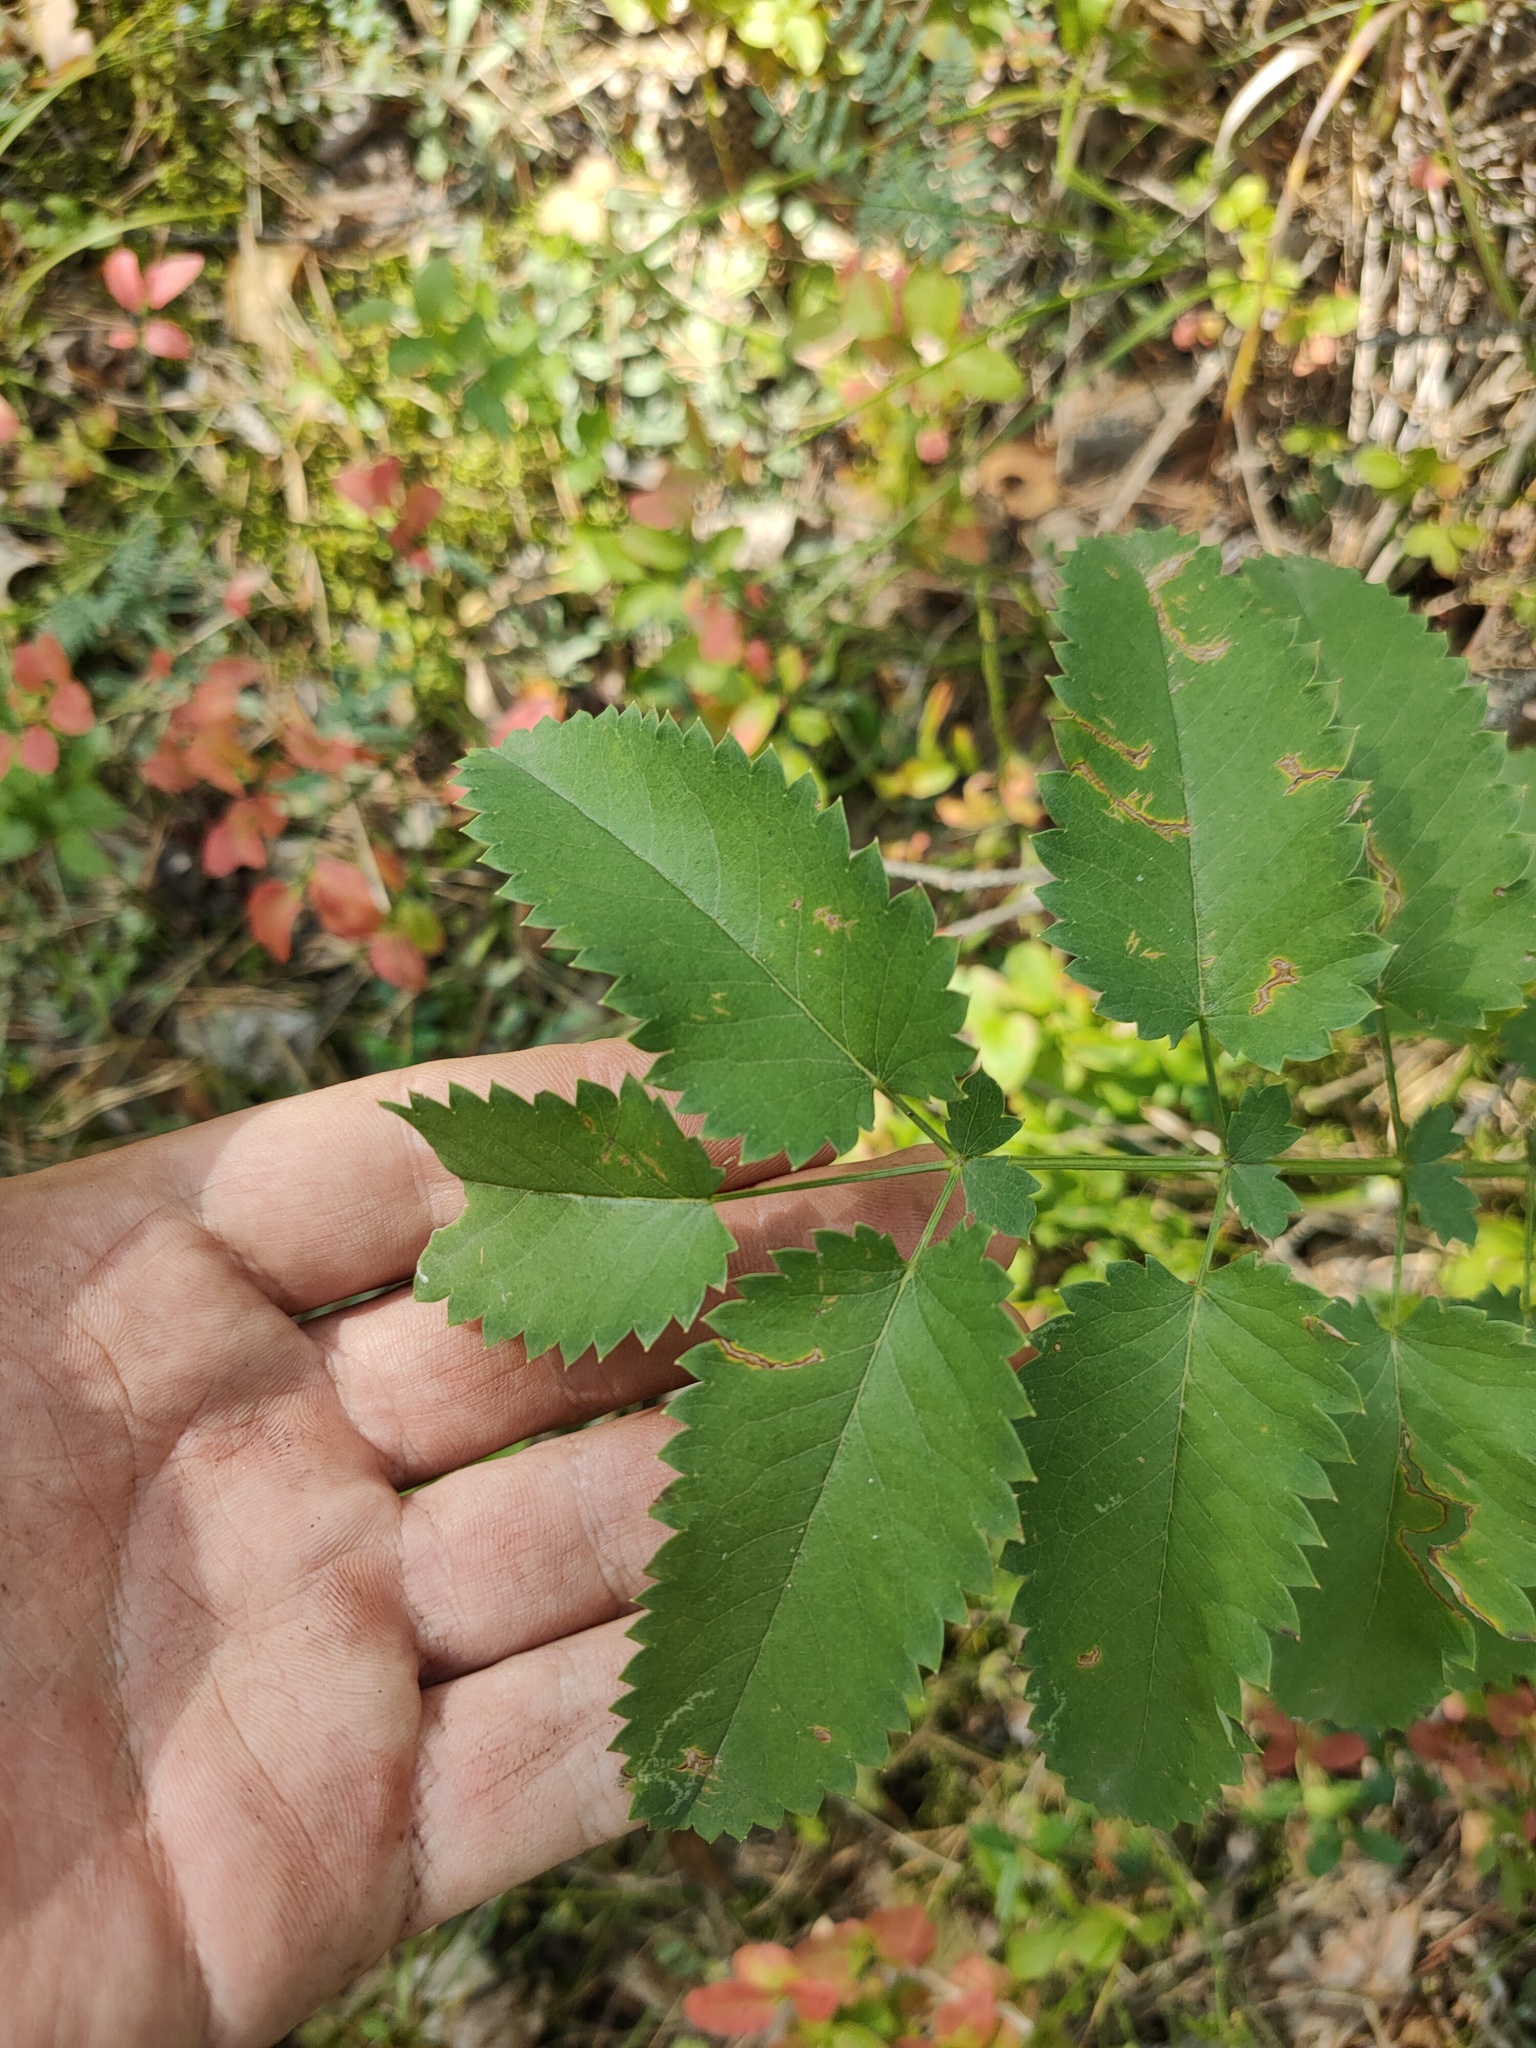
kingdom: Plantae
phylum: Tracheophyta
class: Magnoliopsida
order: Rosales
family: Rosaceae
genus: Sanguisorba
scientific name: Sanguisorba officinalis
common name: Great burnet
